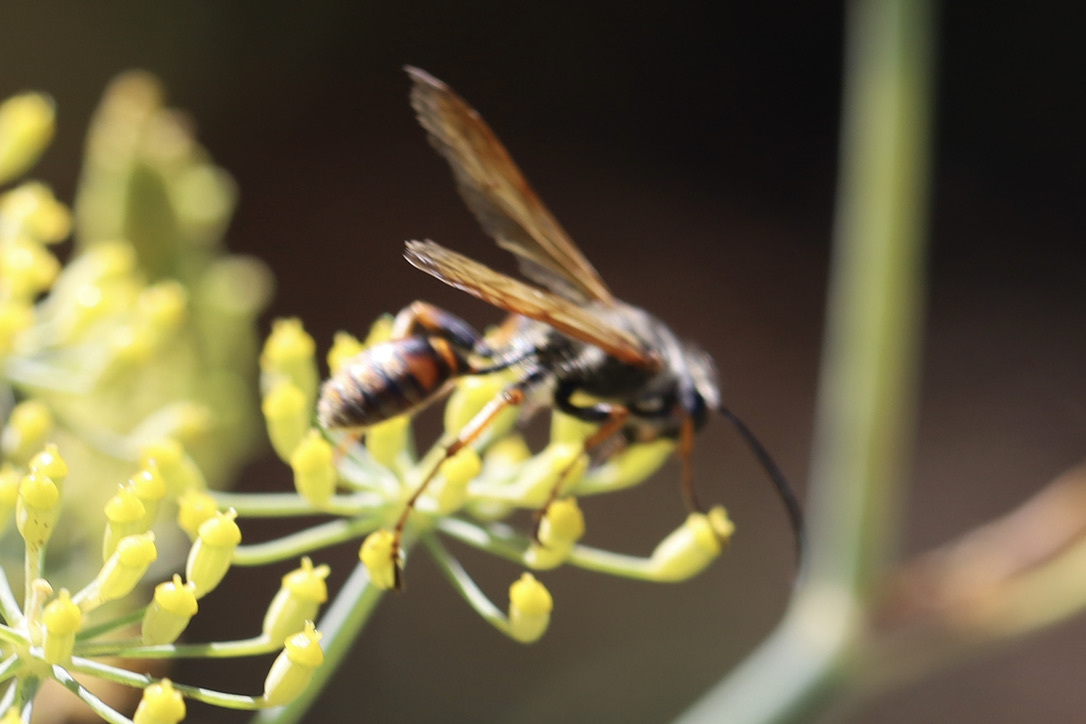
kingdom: Animalia
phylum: Arthropoda
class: Insecta
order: Hymenoptera
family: Sphecidae
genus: Isodontia
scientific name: Isodontia elegans
